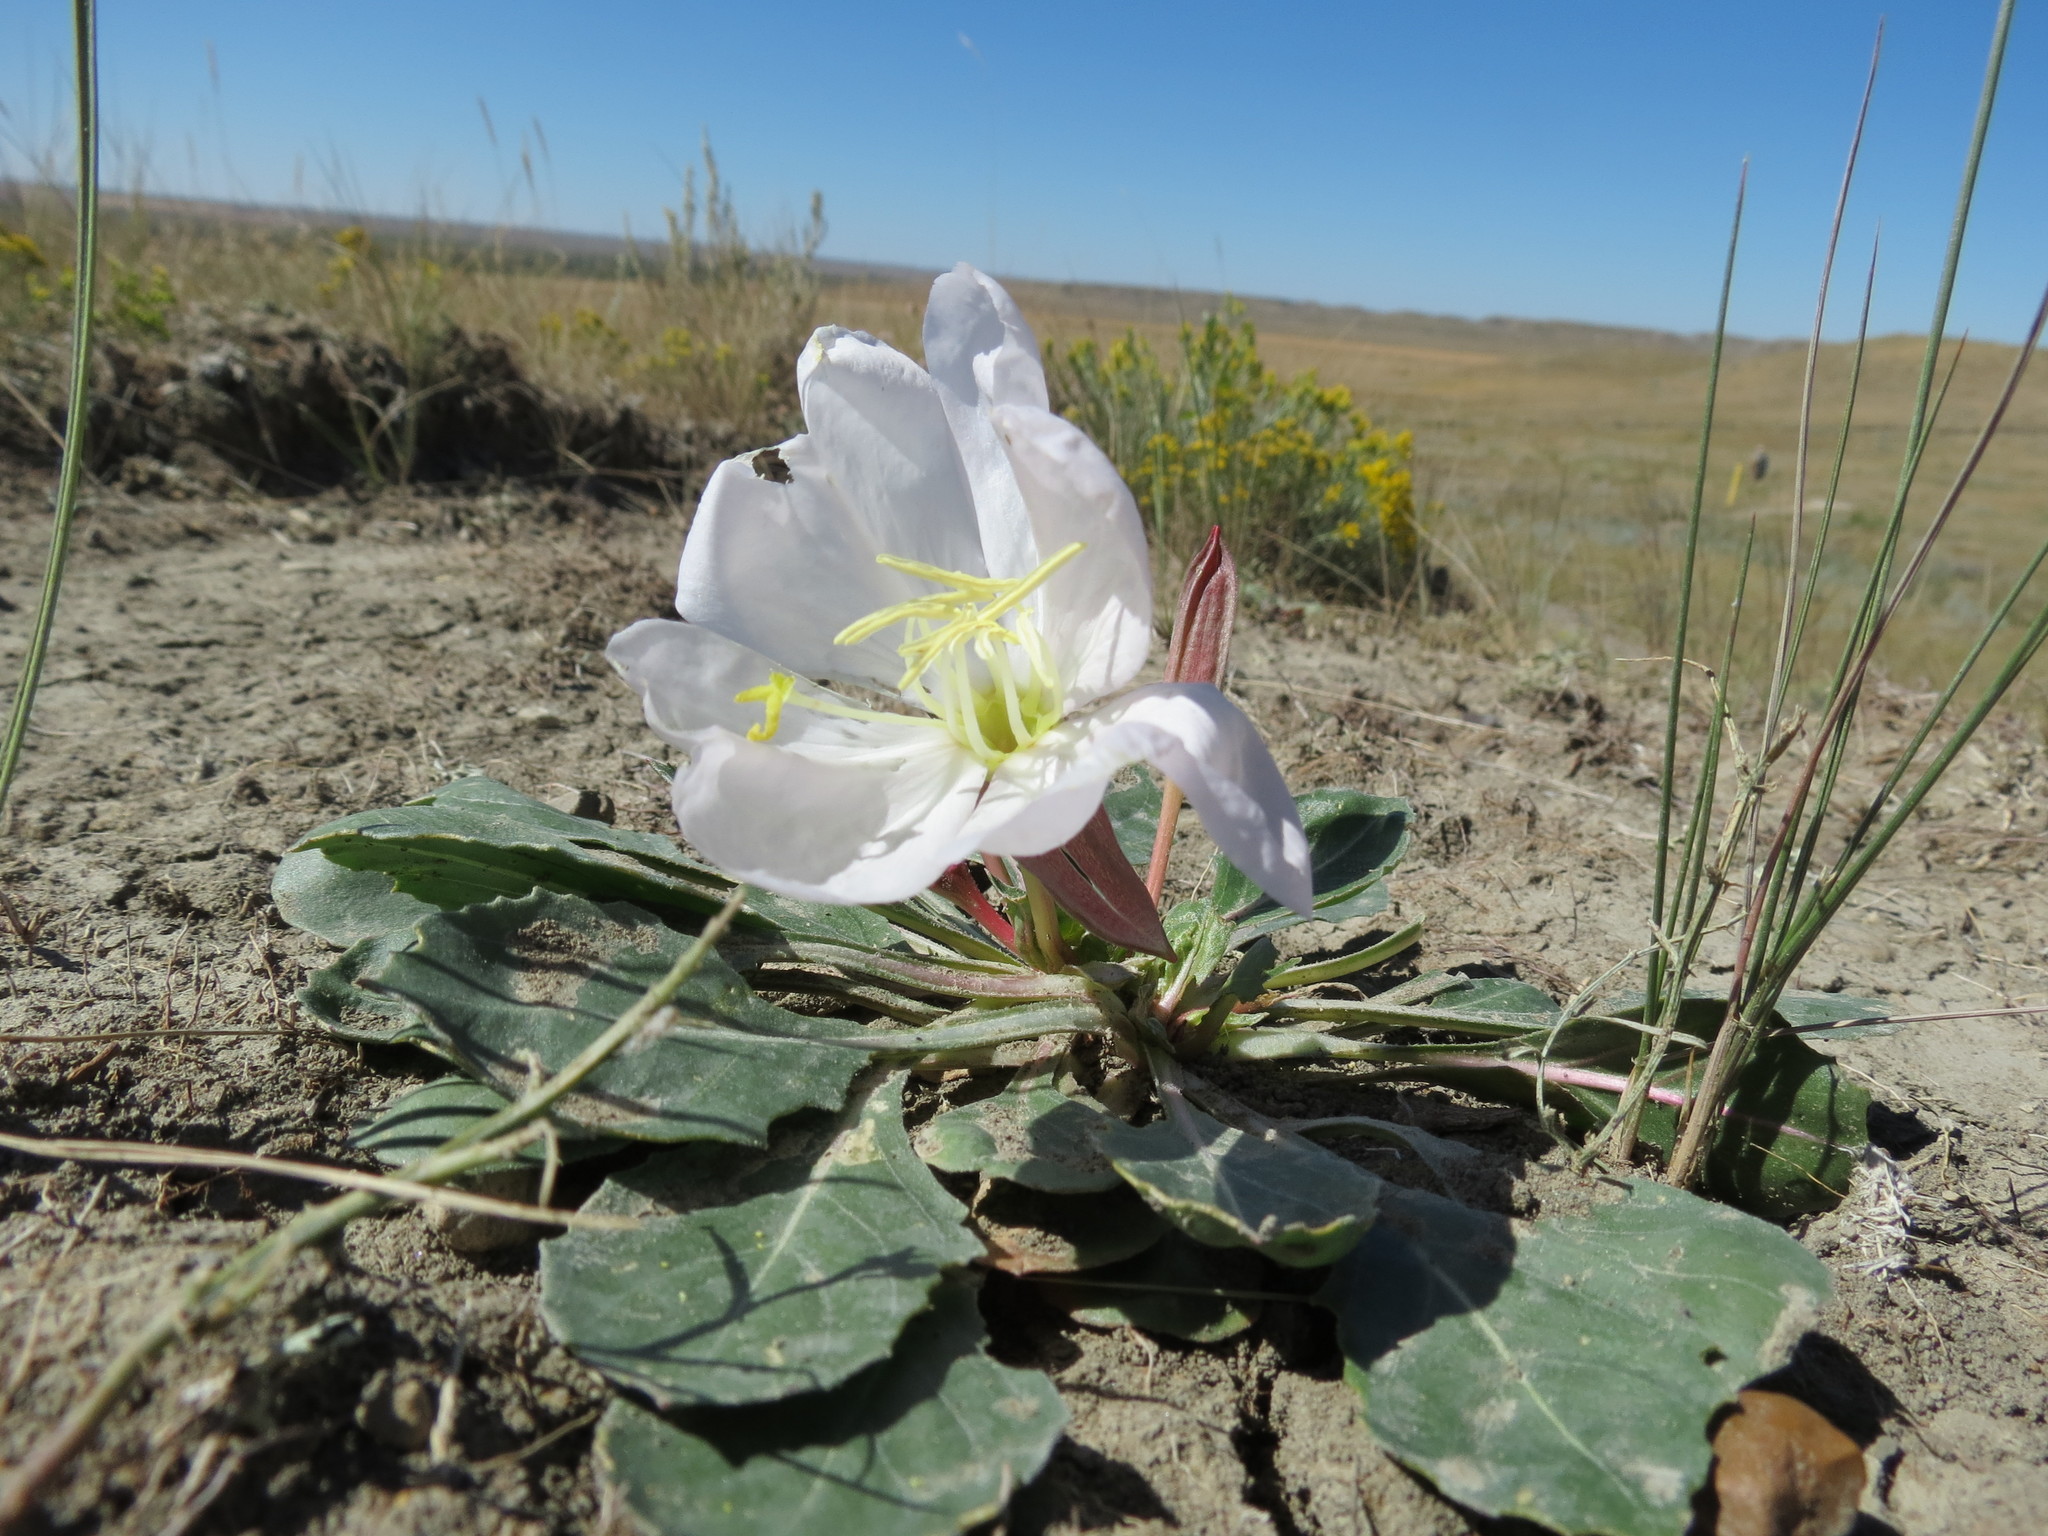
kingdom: Plantae
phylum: Tracheophyta
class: Magnoliopsida
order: Myrtales
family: Onagraceae
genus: Oenothera
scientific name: Oenothera cespitosa
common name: Tufted evening-primrose
